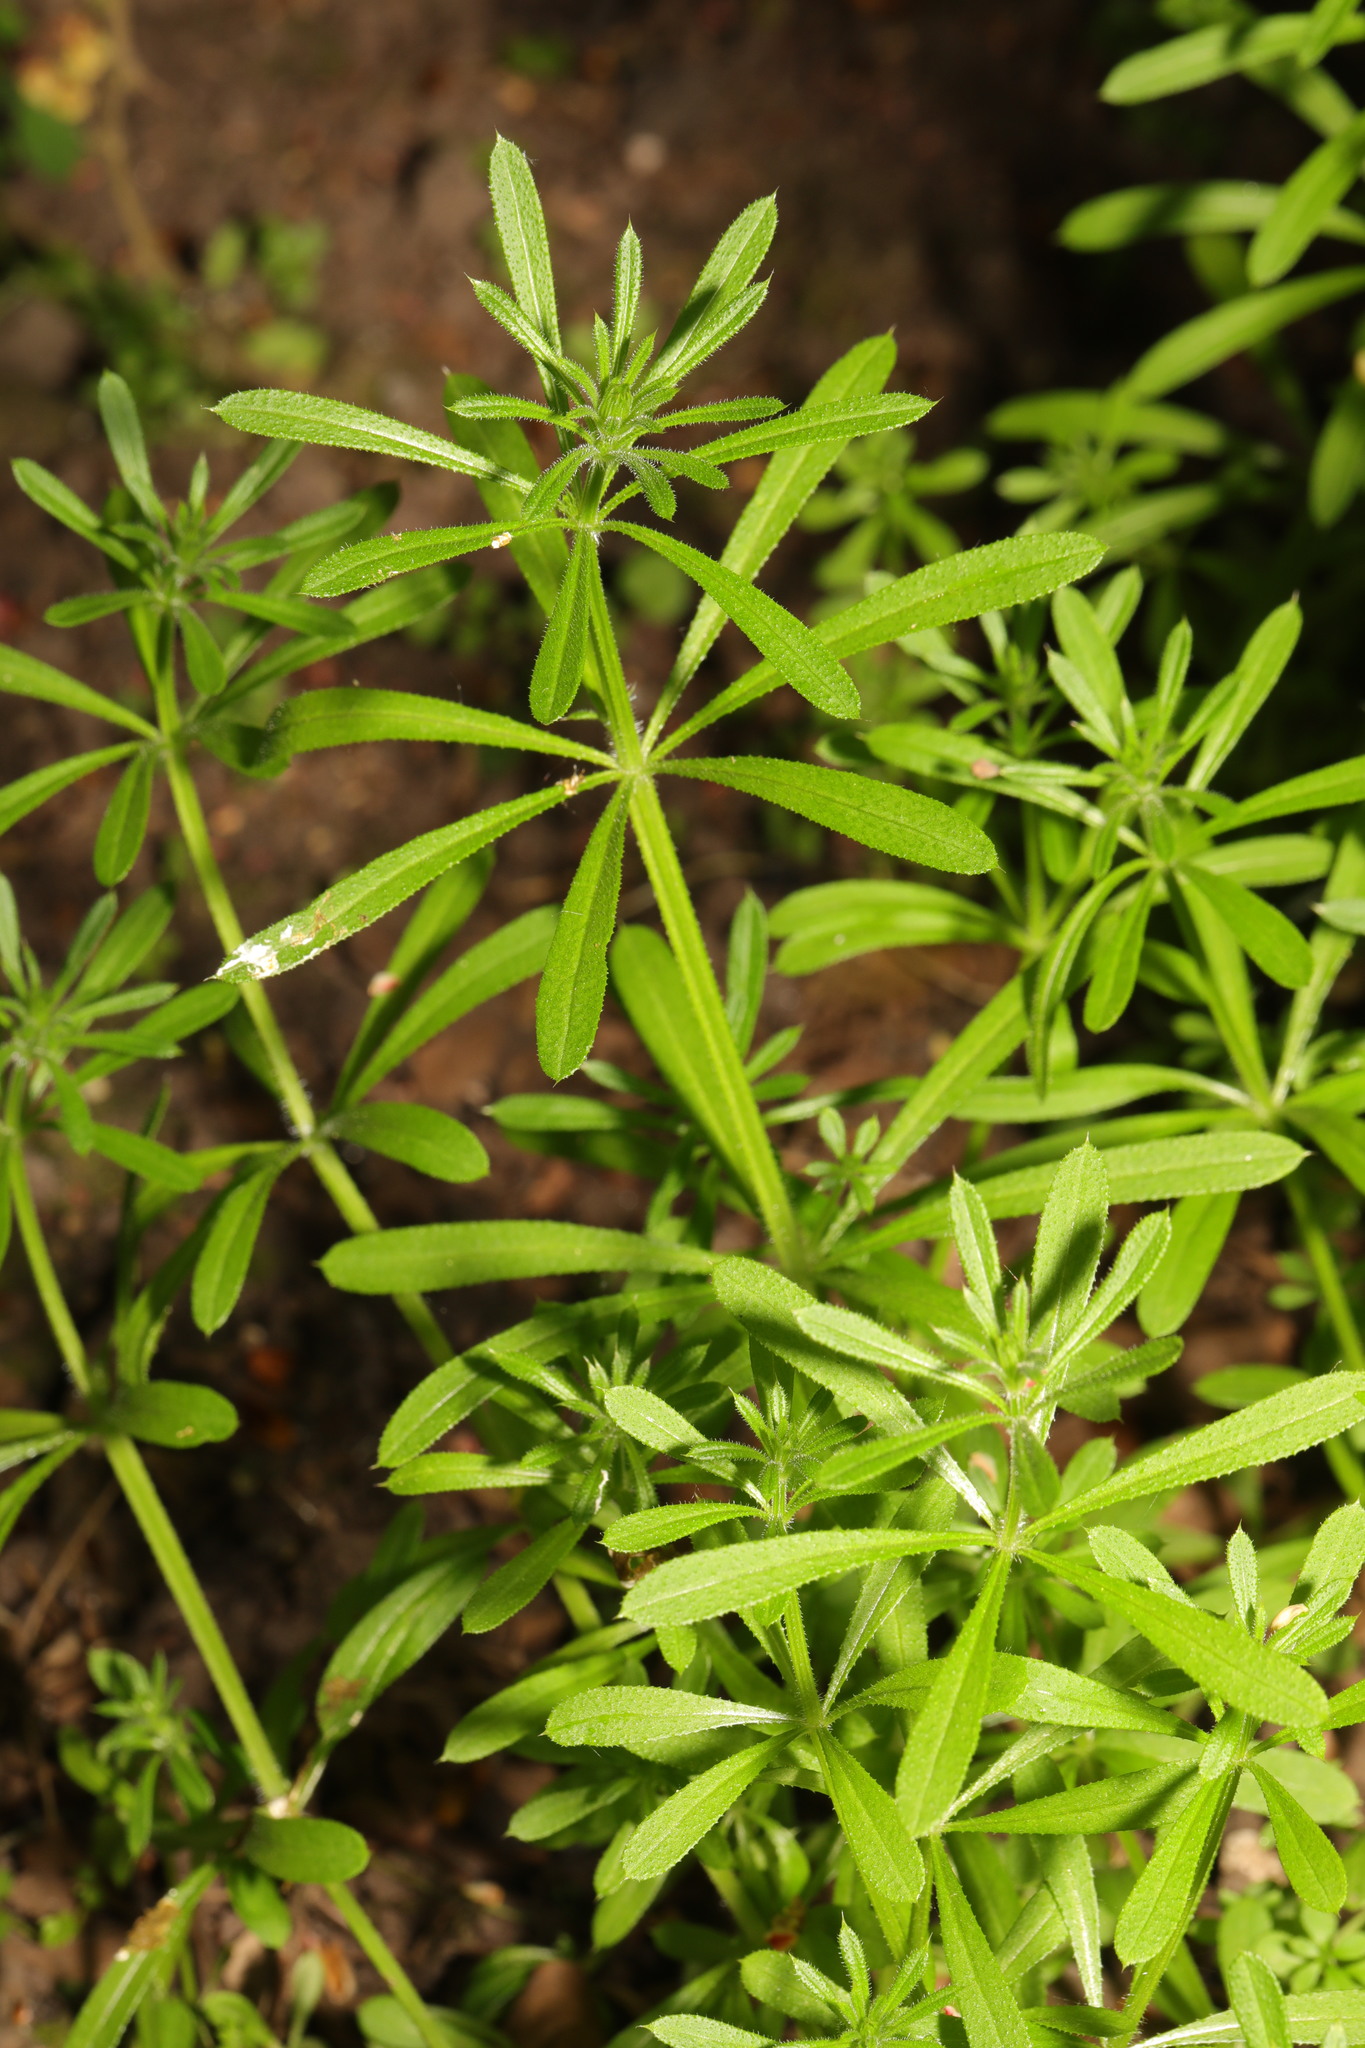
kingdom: Plantae
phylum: Tracheophyta
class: Magnoliopsida
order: Gentianales
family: Rubiaceae
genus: Galium
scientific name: Galium aparine
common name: Cleavers
